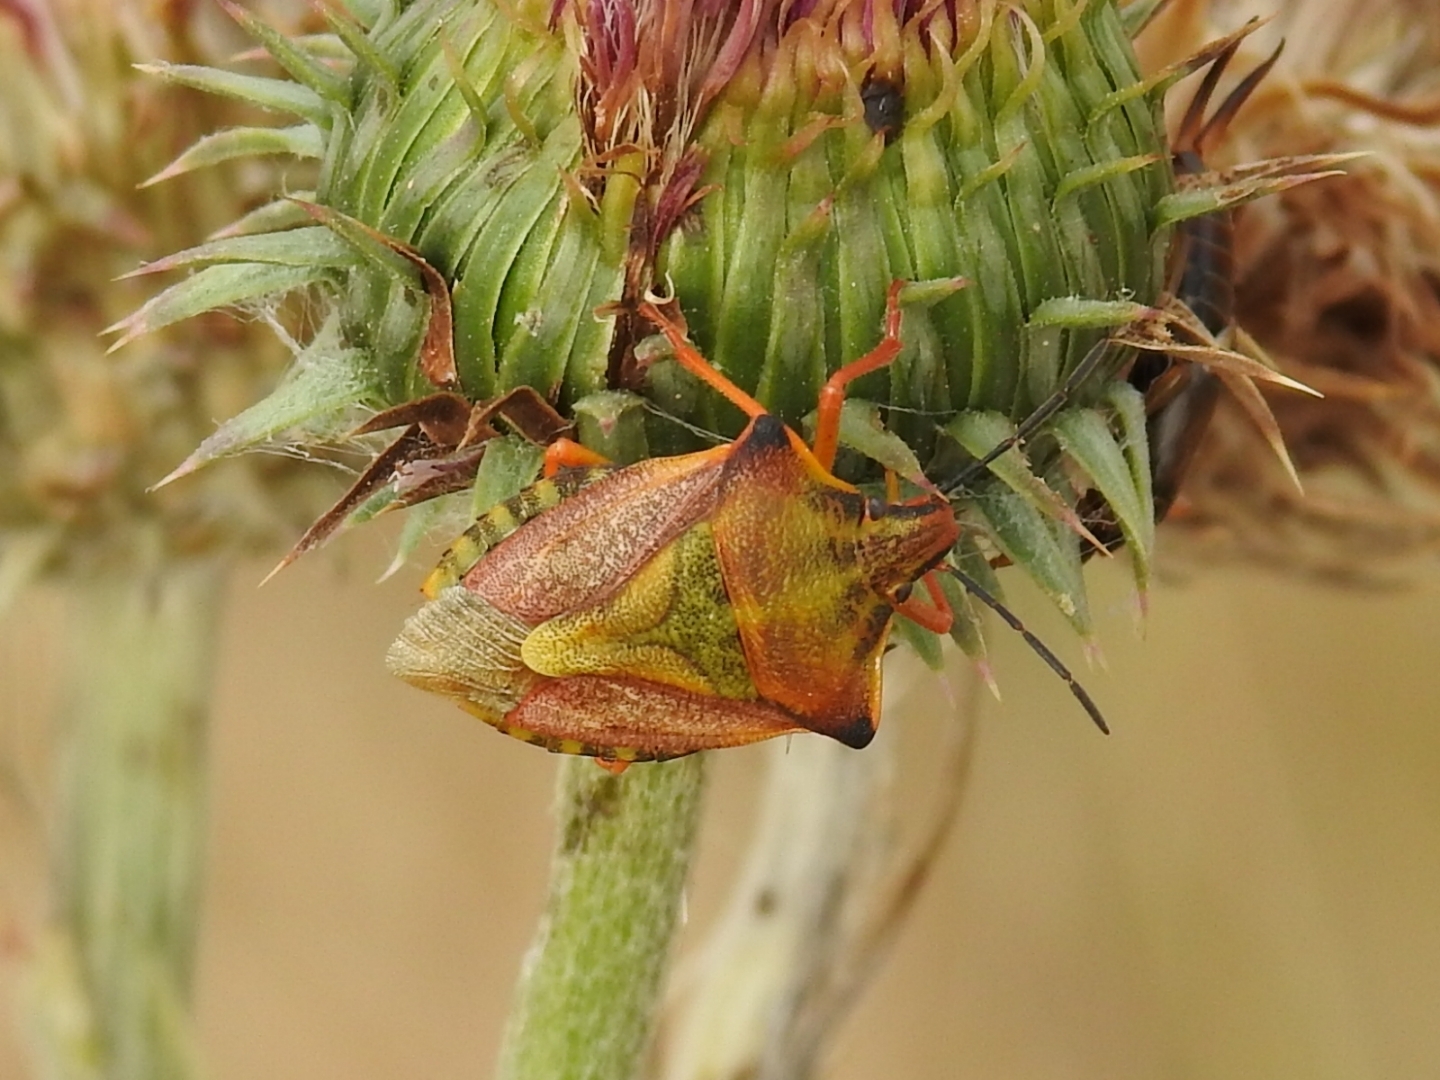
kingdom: Animalia
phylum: Arthropoda
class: Insecta
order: Hemiptera
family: Pentatomidae
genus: Carpocoris
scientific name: Carpocoris mediterraneus
